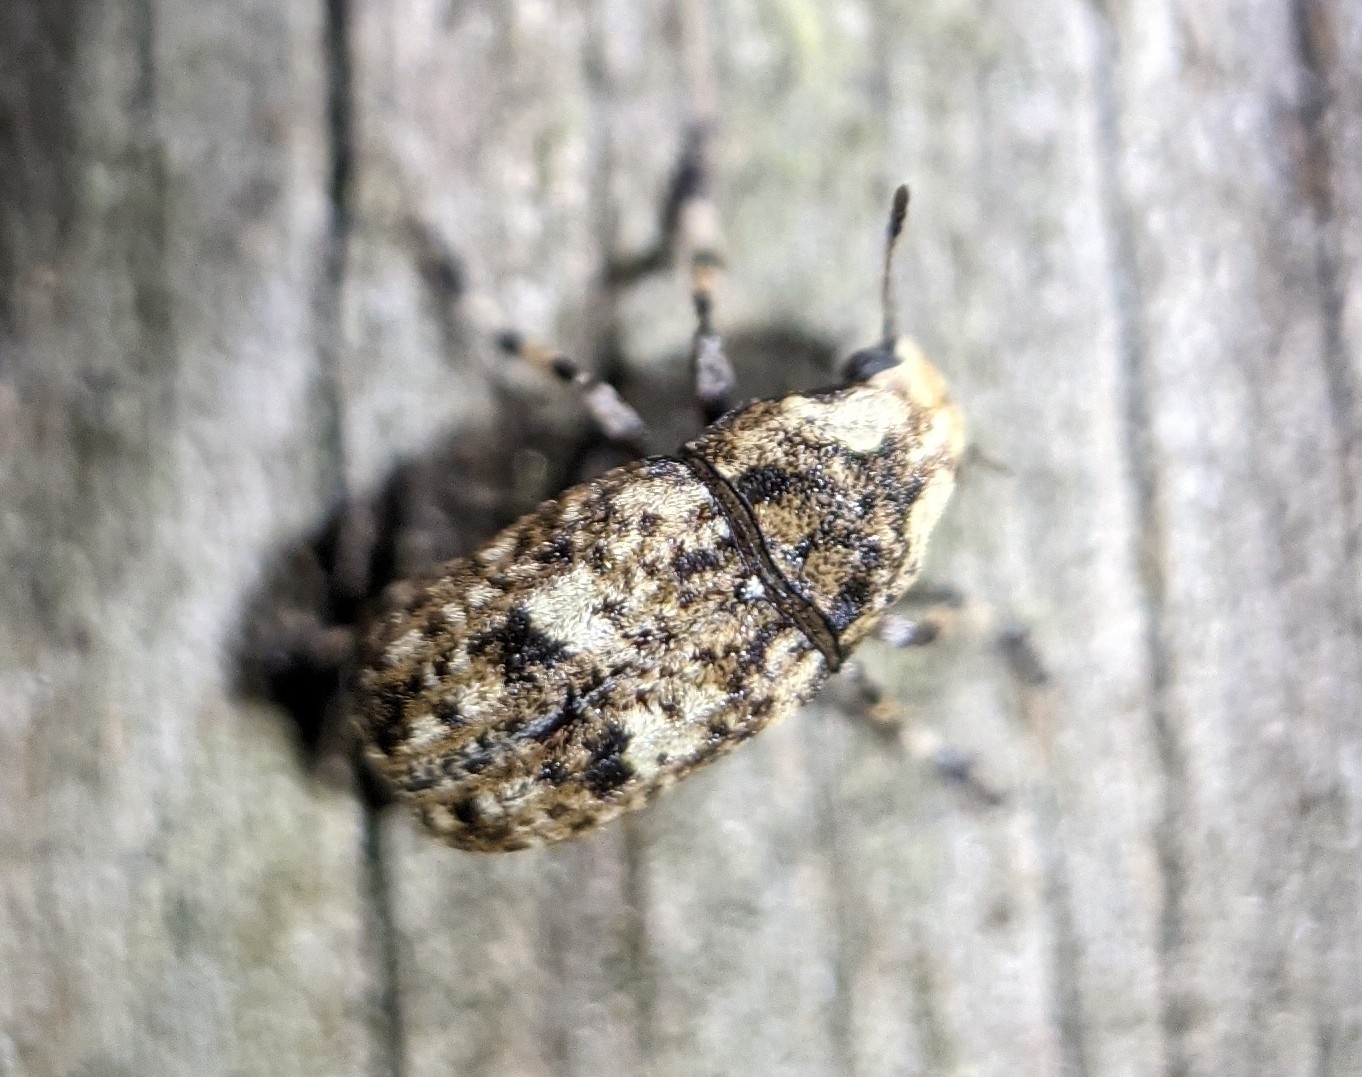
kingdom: Animalia
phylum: Arthropoda
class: Insecta
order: Coleoptera
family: Anthribidae
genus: Euparius
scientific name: Euparius marmoreus
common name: Marbled fungus weevil
